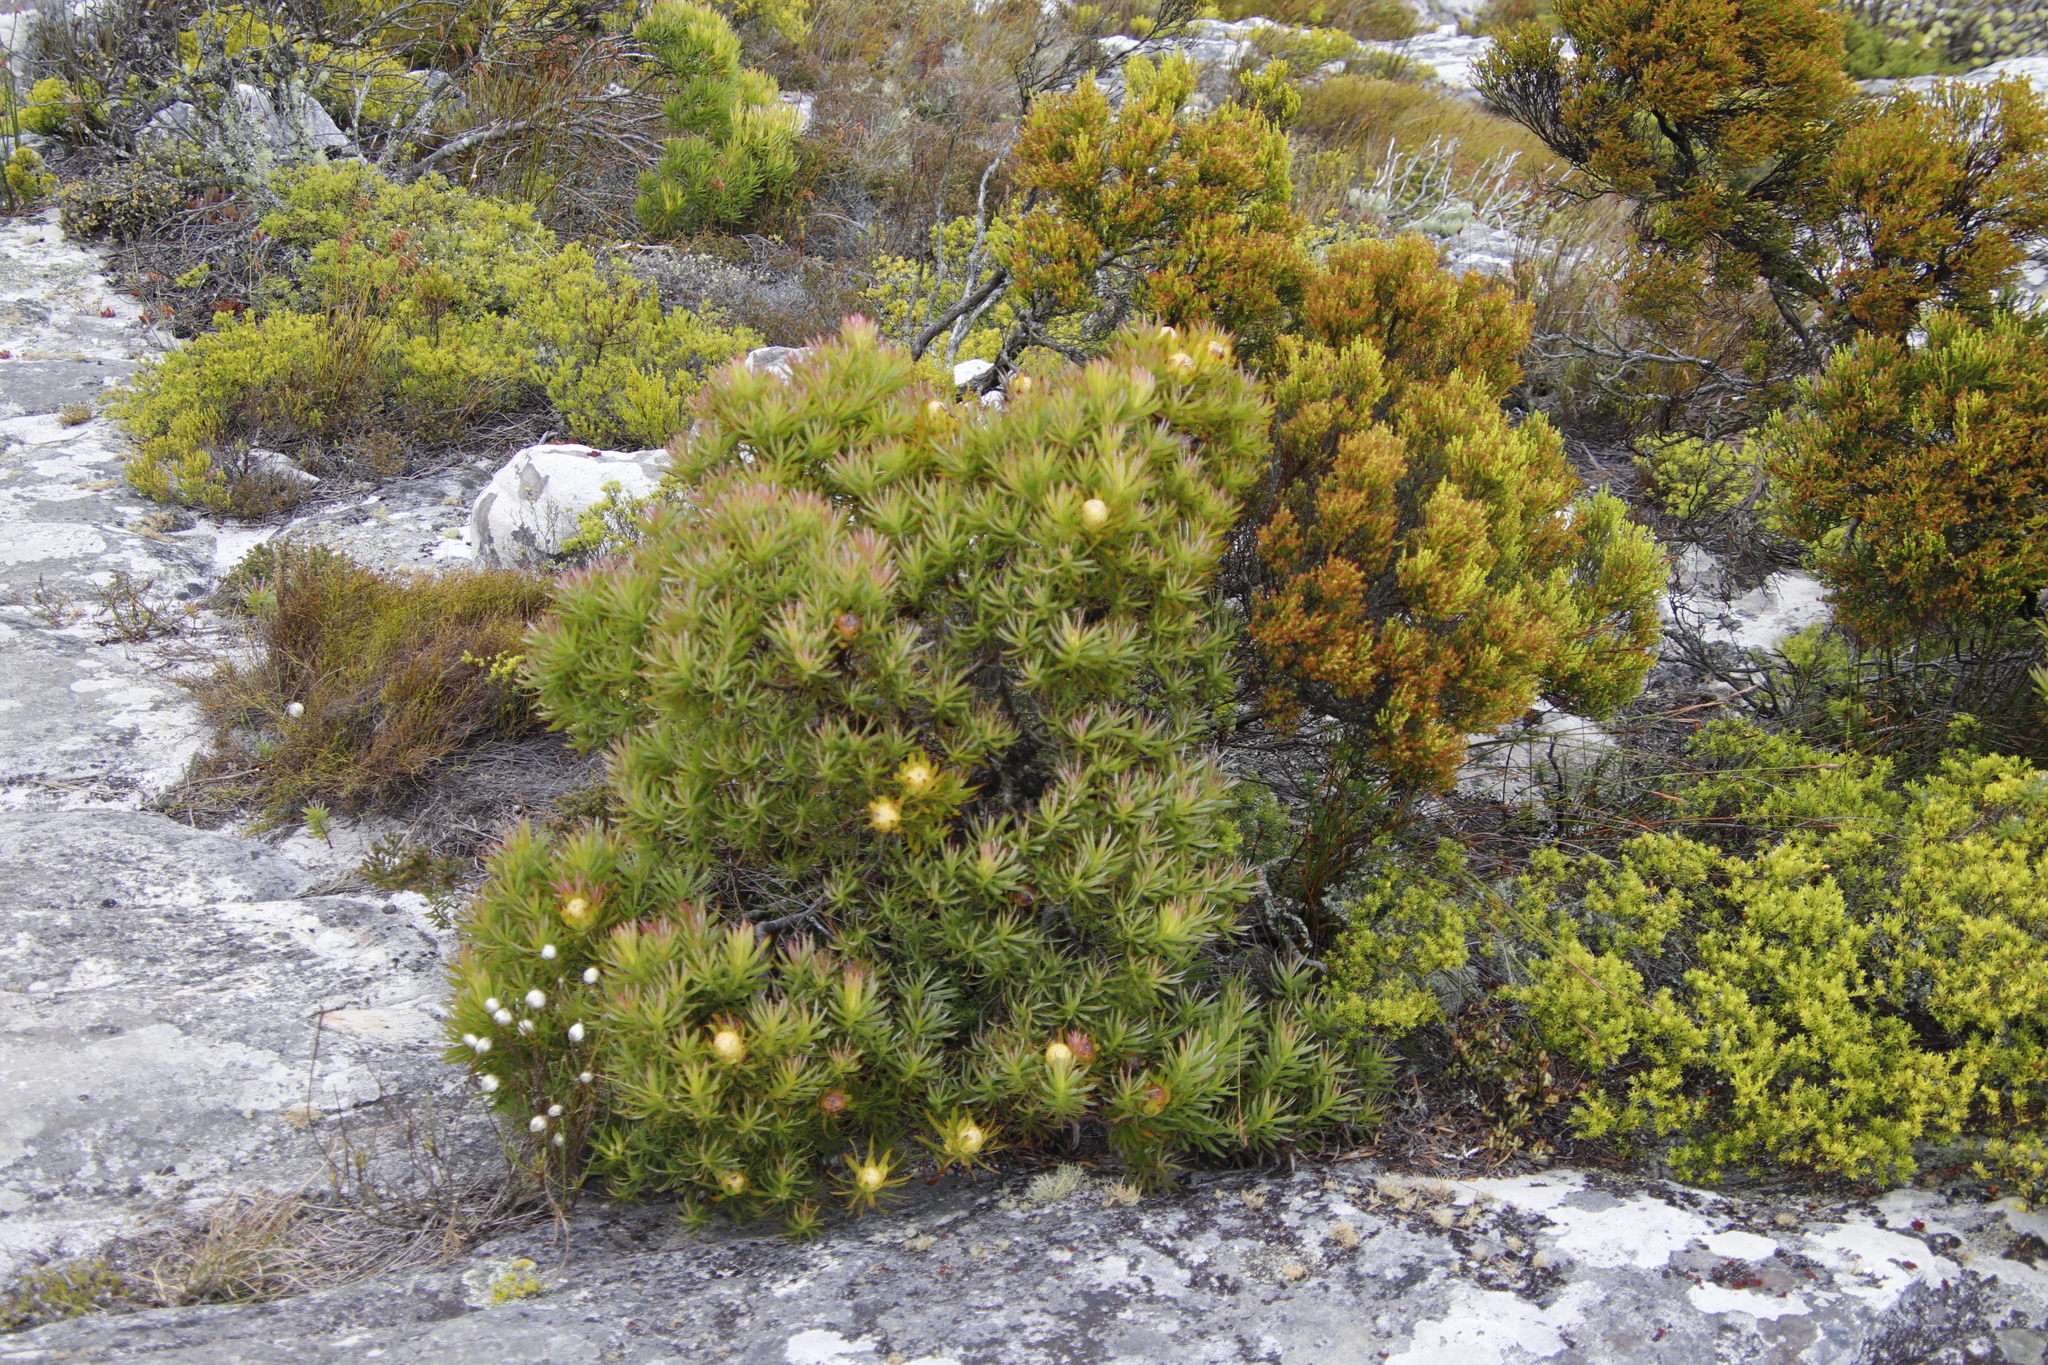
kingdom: Plantae
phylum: Tracheophyta
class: Magnoliopsida
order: Proteales
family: Proteaceae
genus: Leucadendron
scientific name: Leucadendron xanthoconus
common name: Sickle-leaf conebush
